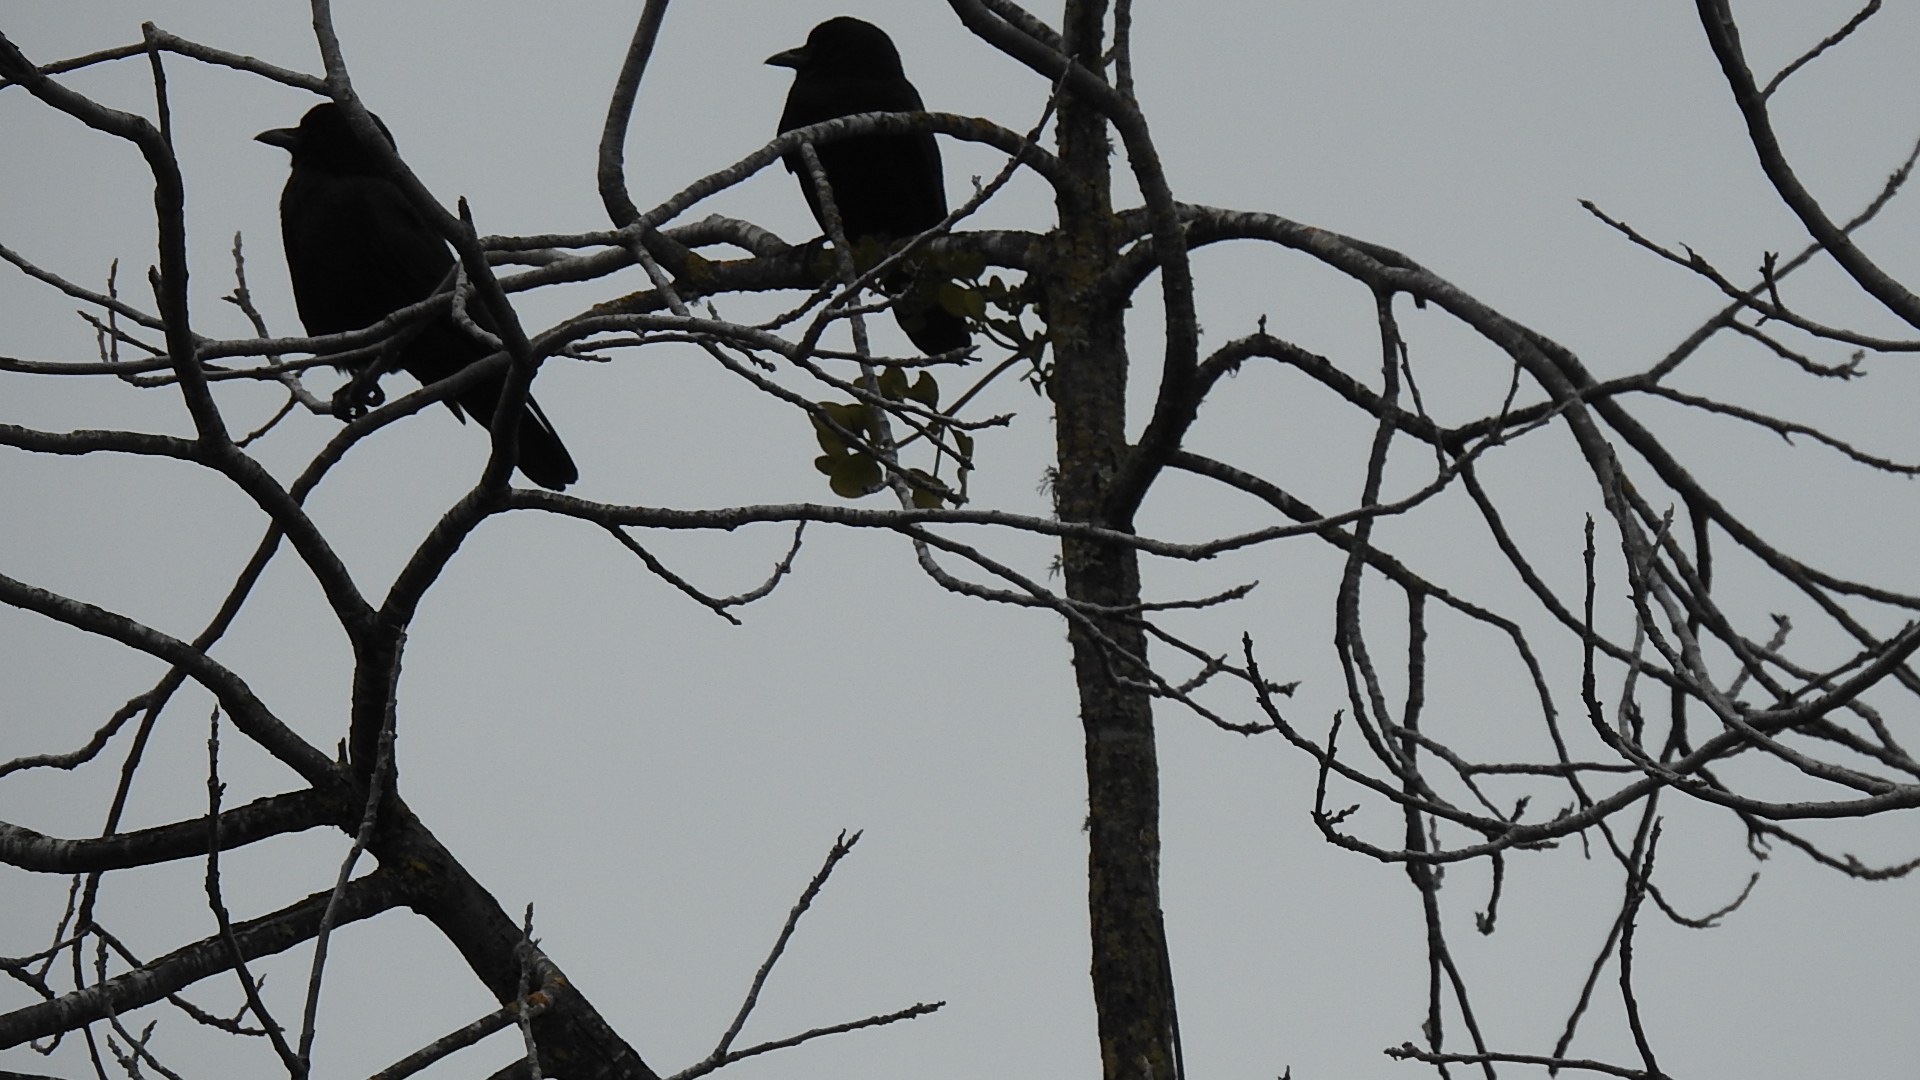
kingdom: Animalia
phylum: Chordata
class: Aves
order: Passeriformes
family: Icteridae
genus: Molothrus
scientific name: Molothrus ater
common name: Brown-headed cowbird
